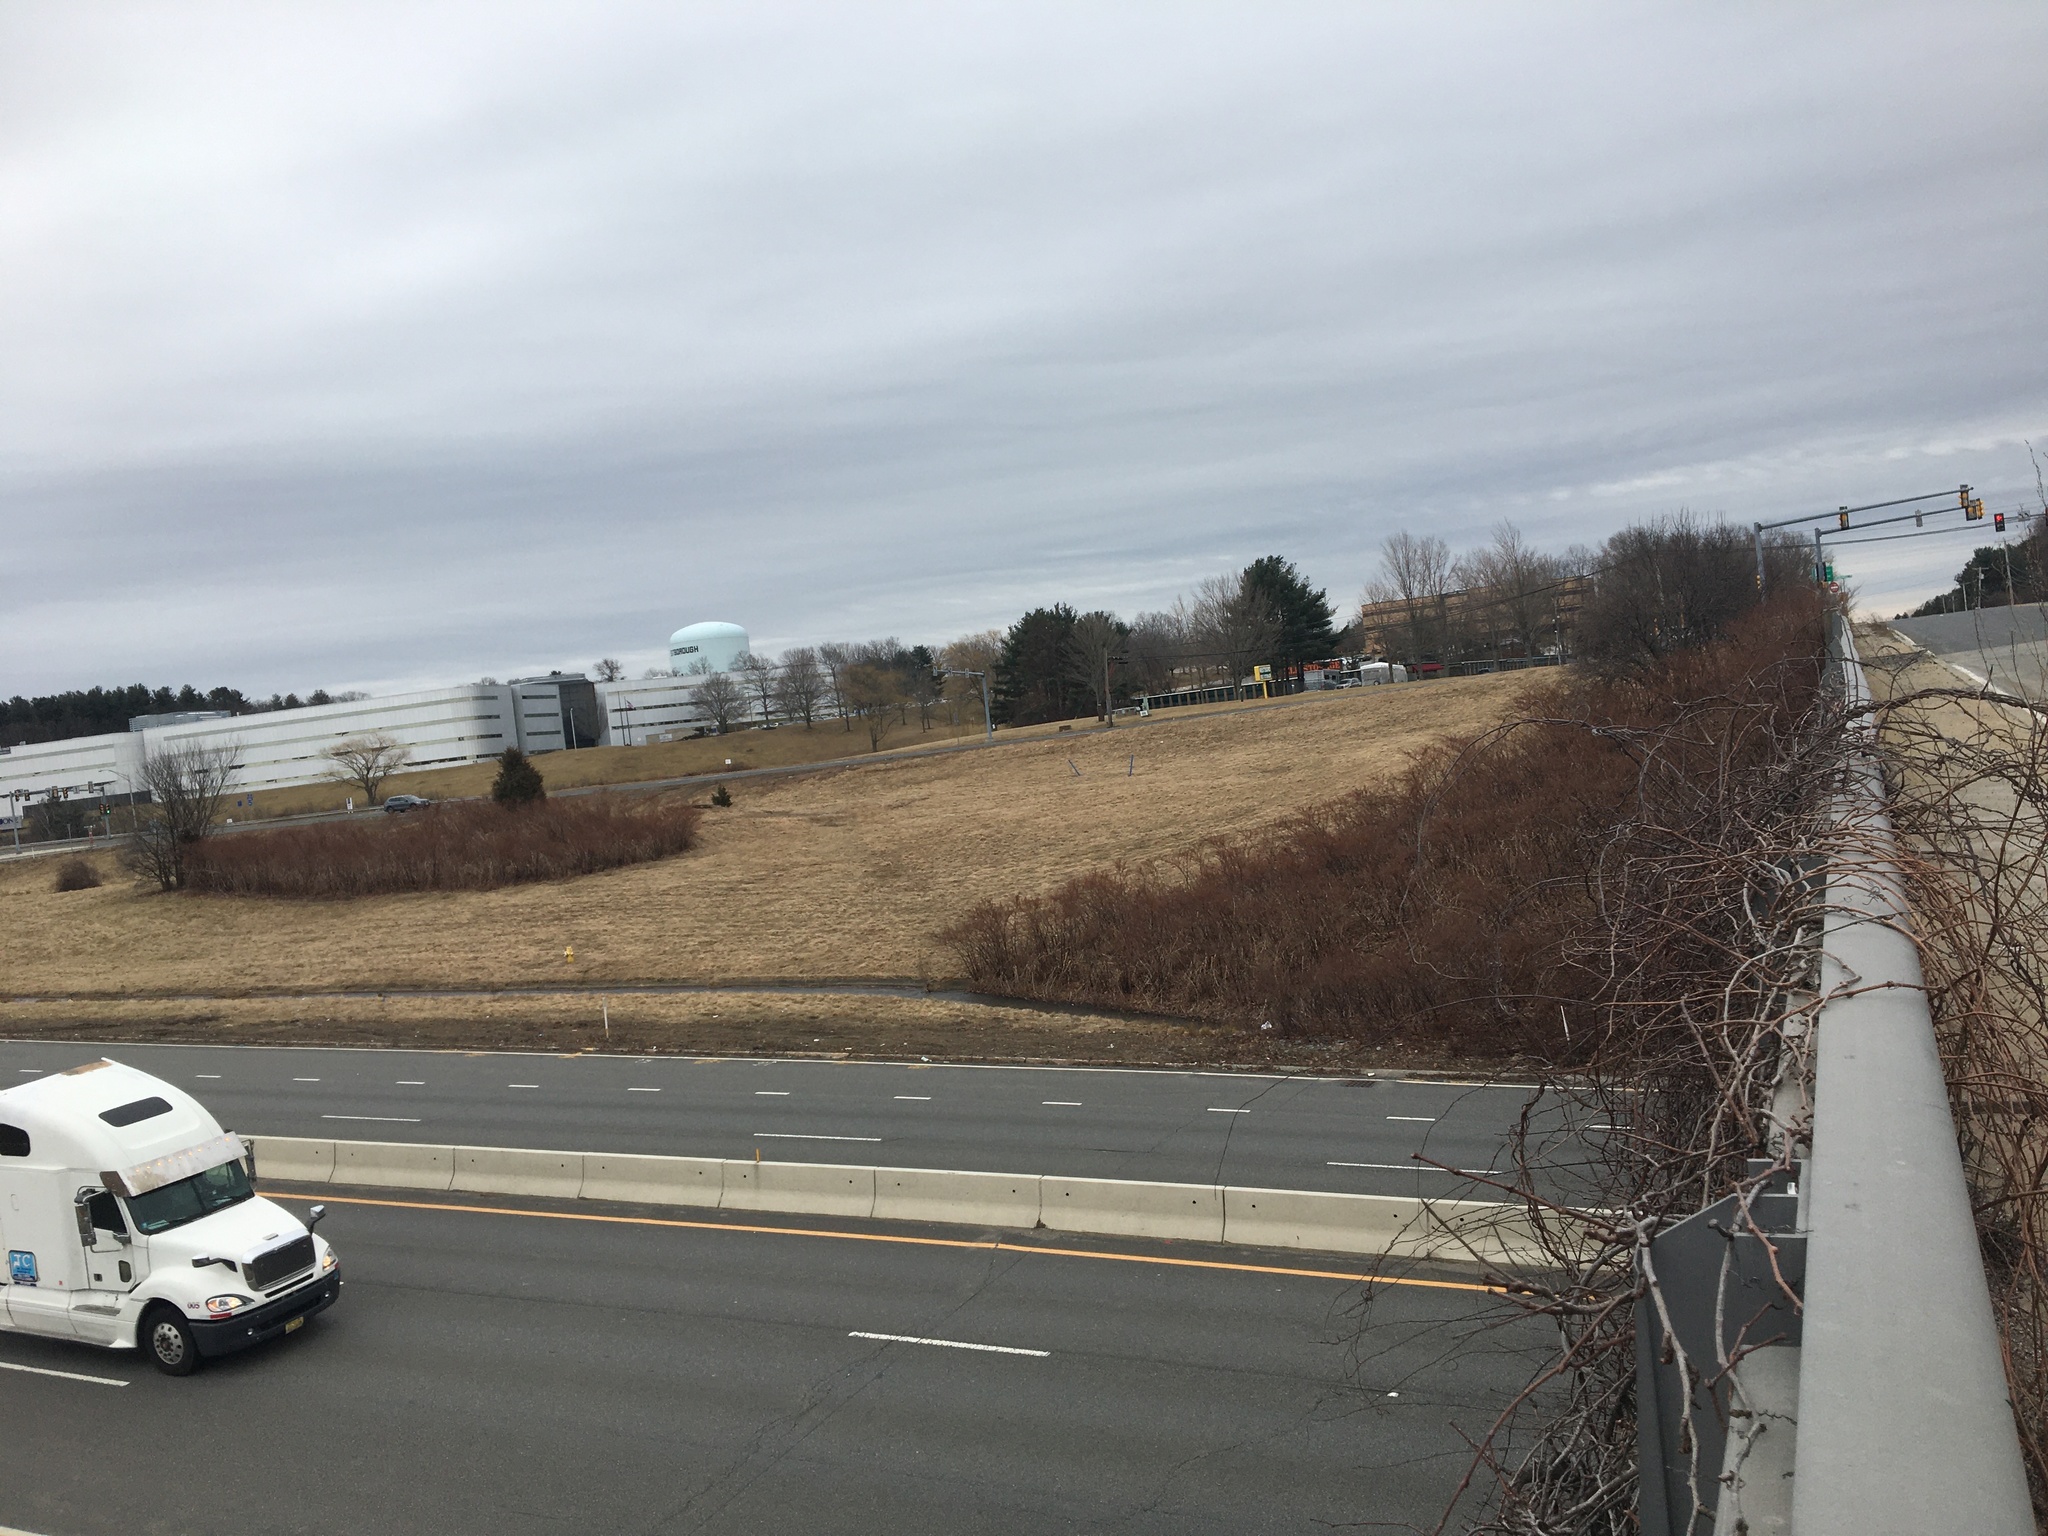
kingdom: Plantae
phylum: Tracheophyta
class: Magnoliopsida
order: Caryophyllales
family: Polygonaceae
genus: Reynoutria
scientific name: Reynoutria japonica
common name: Japanese knotweed
